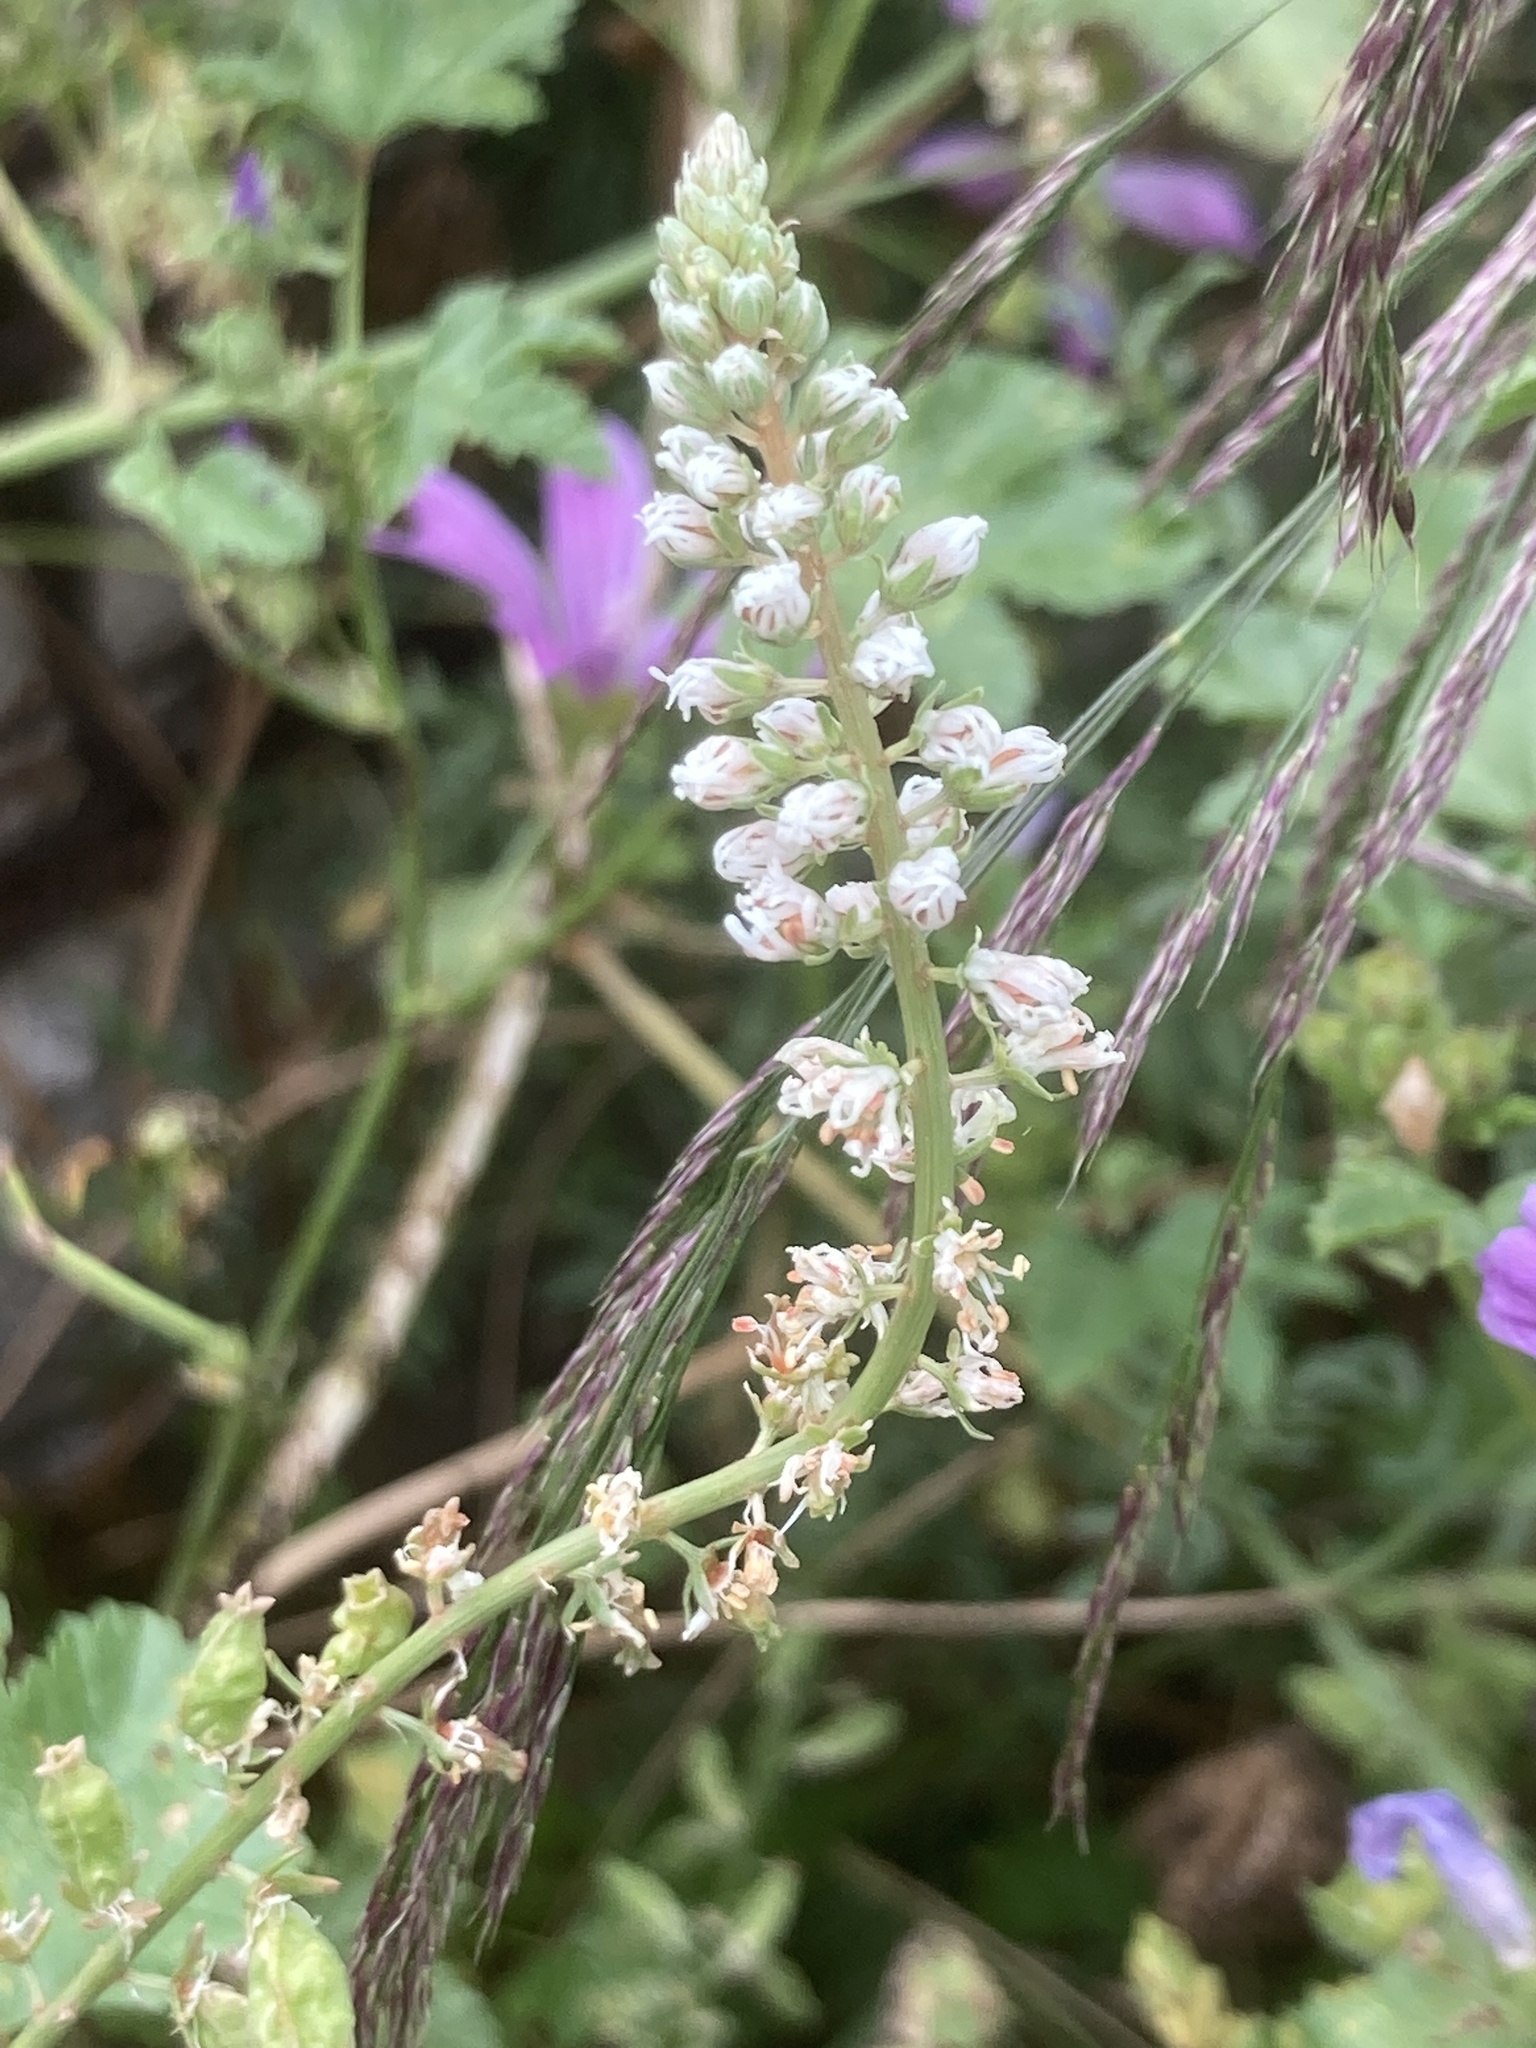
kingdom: Plantae
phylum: Tracheophyta
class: Magnoliopsida
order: Brassicales
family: Resedaceae
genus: Reseda
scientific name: Reseda alba
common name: White mignonette
